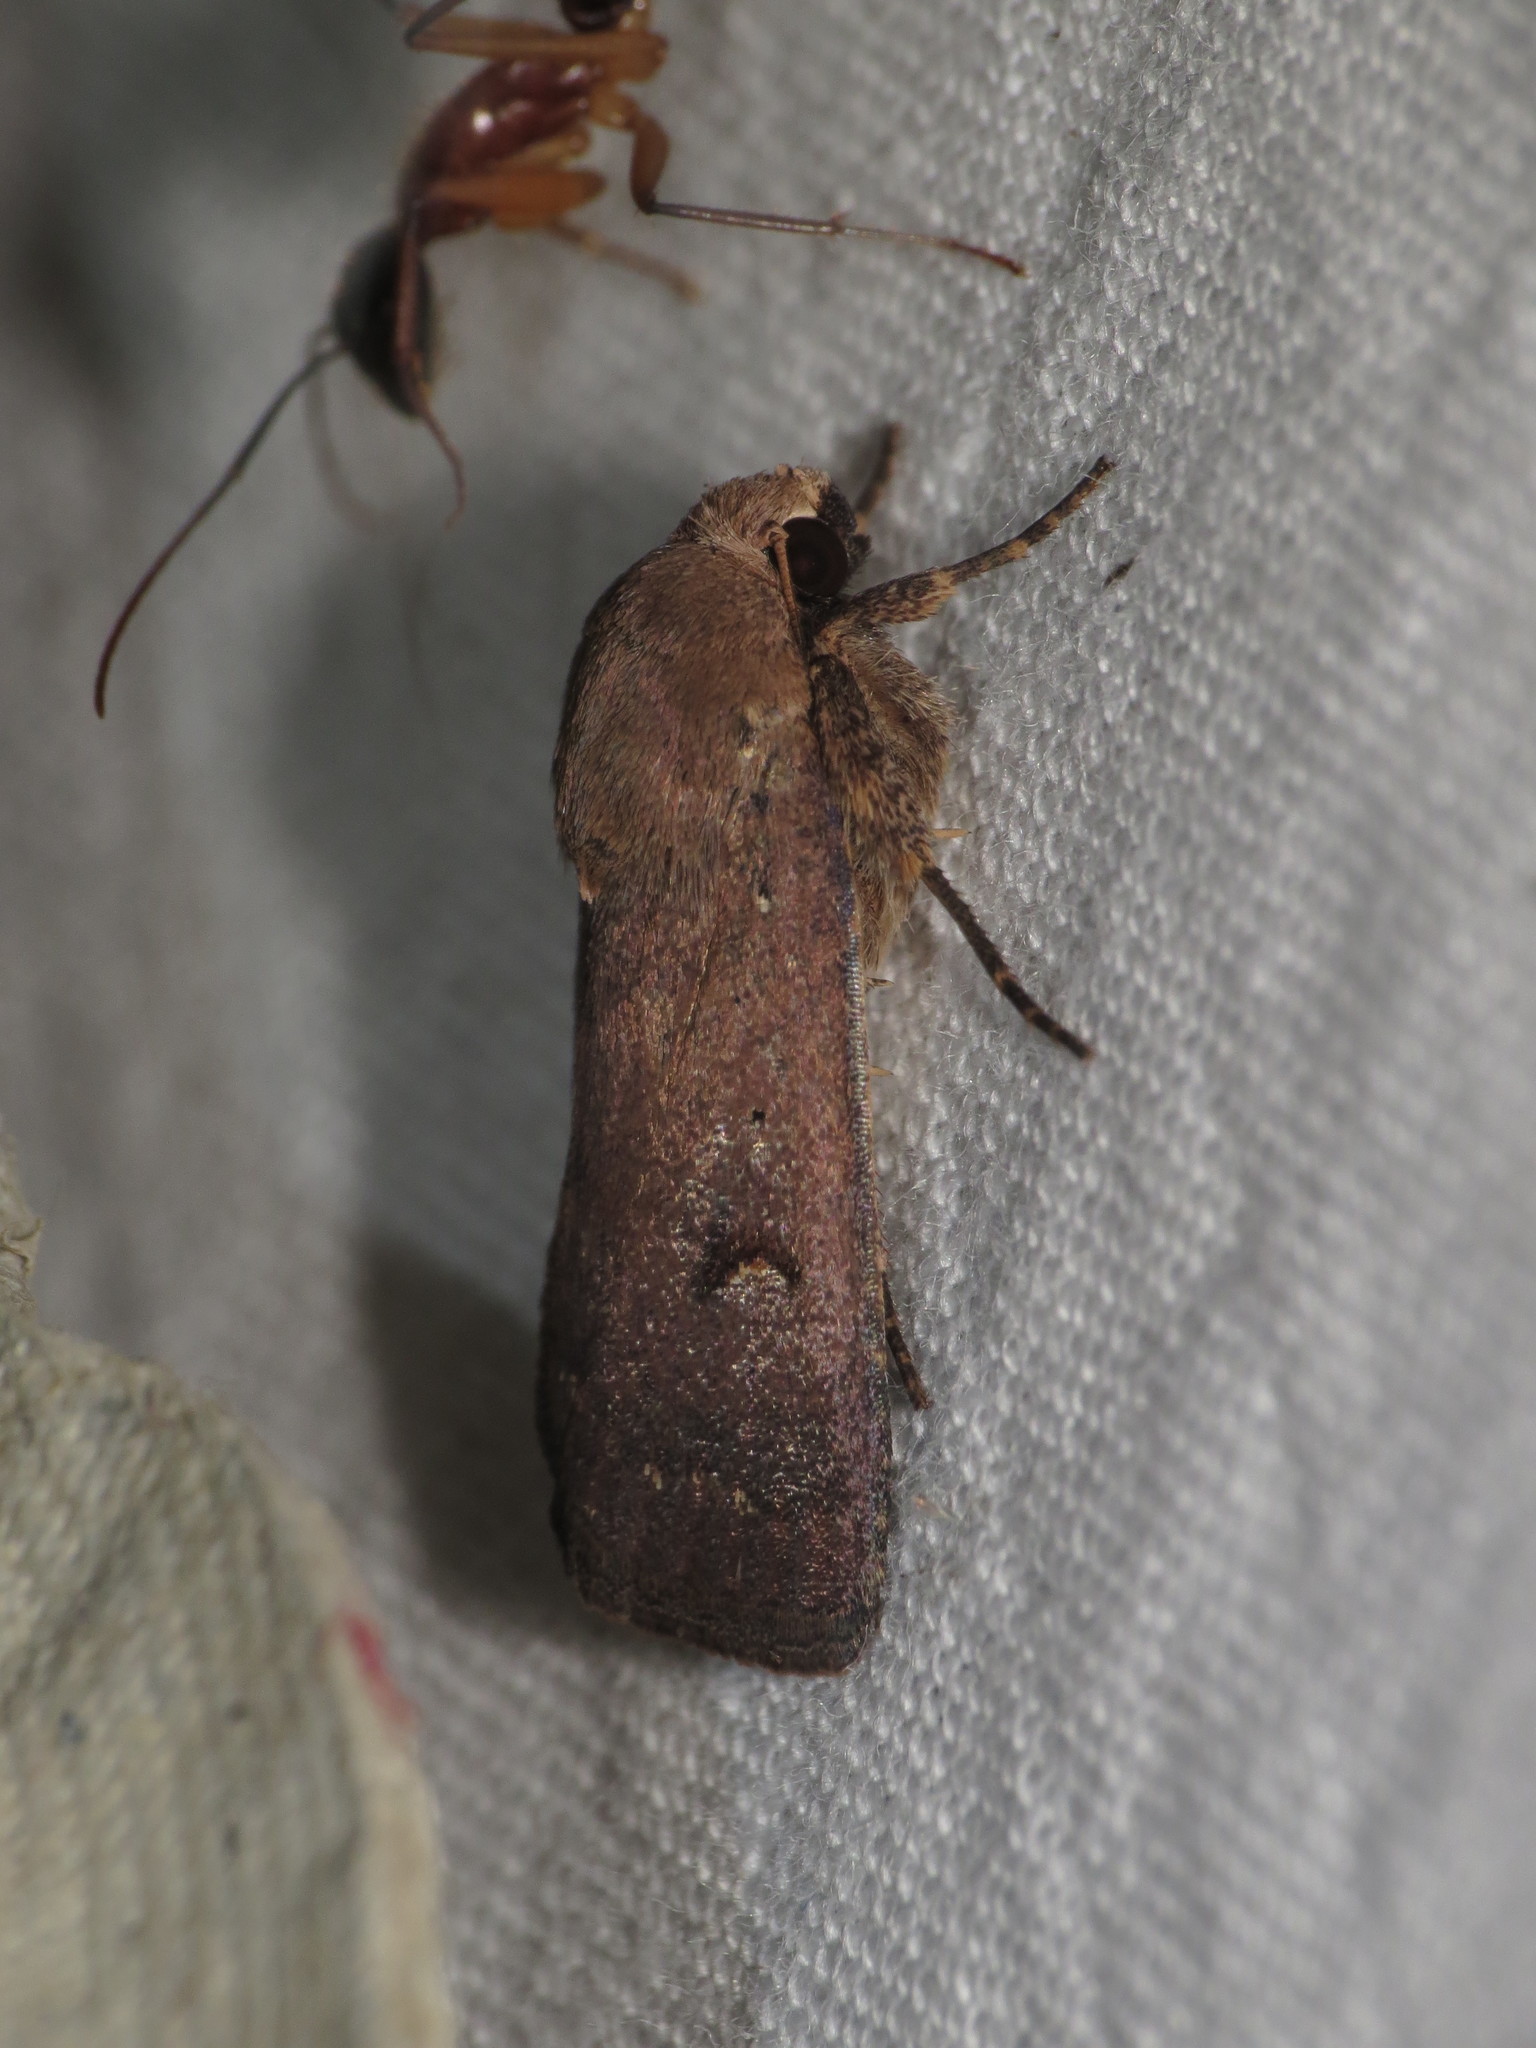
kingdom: Animalia
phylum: Arthropoda
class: Insecta
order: Lepidoptera
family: Noctuidae
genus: Proteuxoa
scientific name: Proteuxoa hypochalchis
